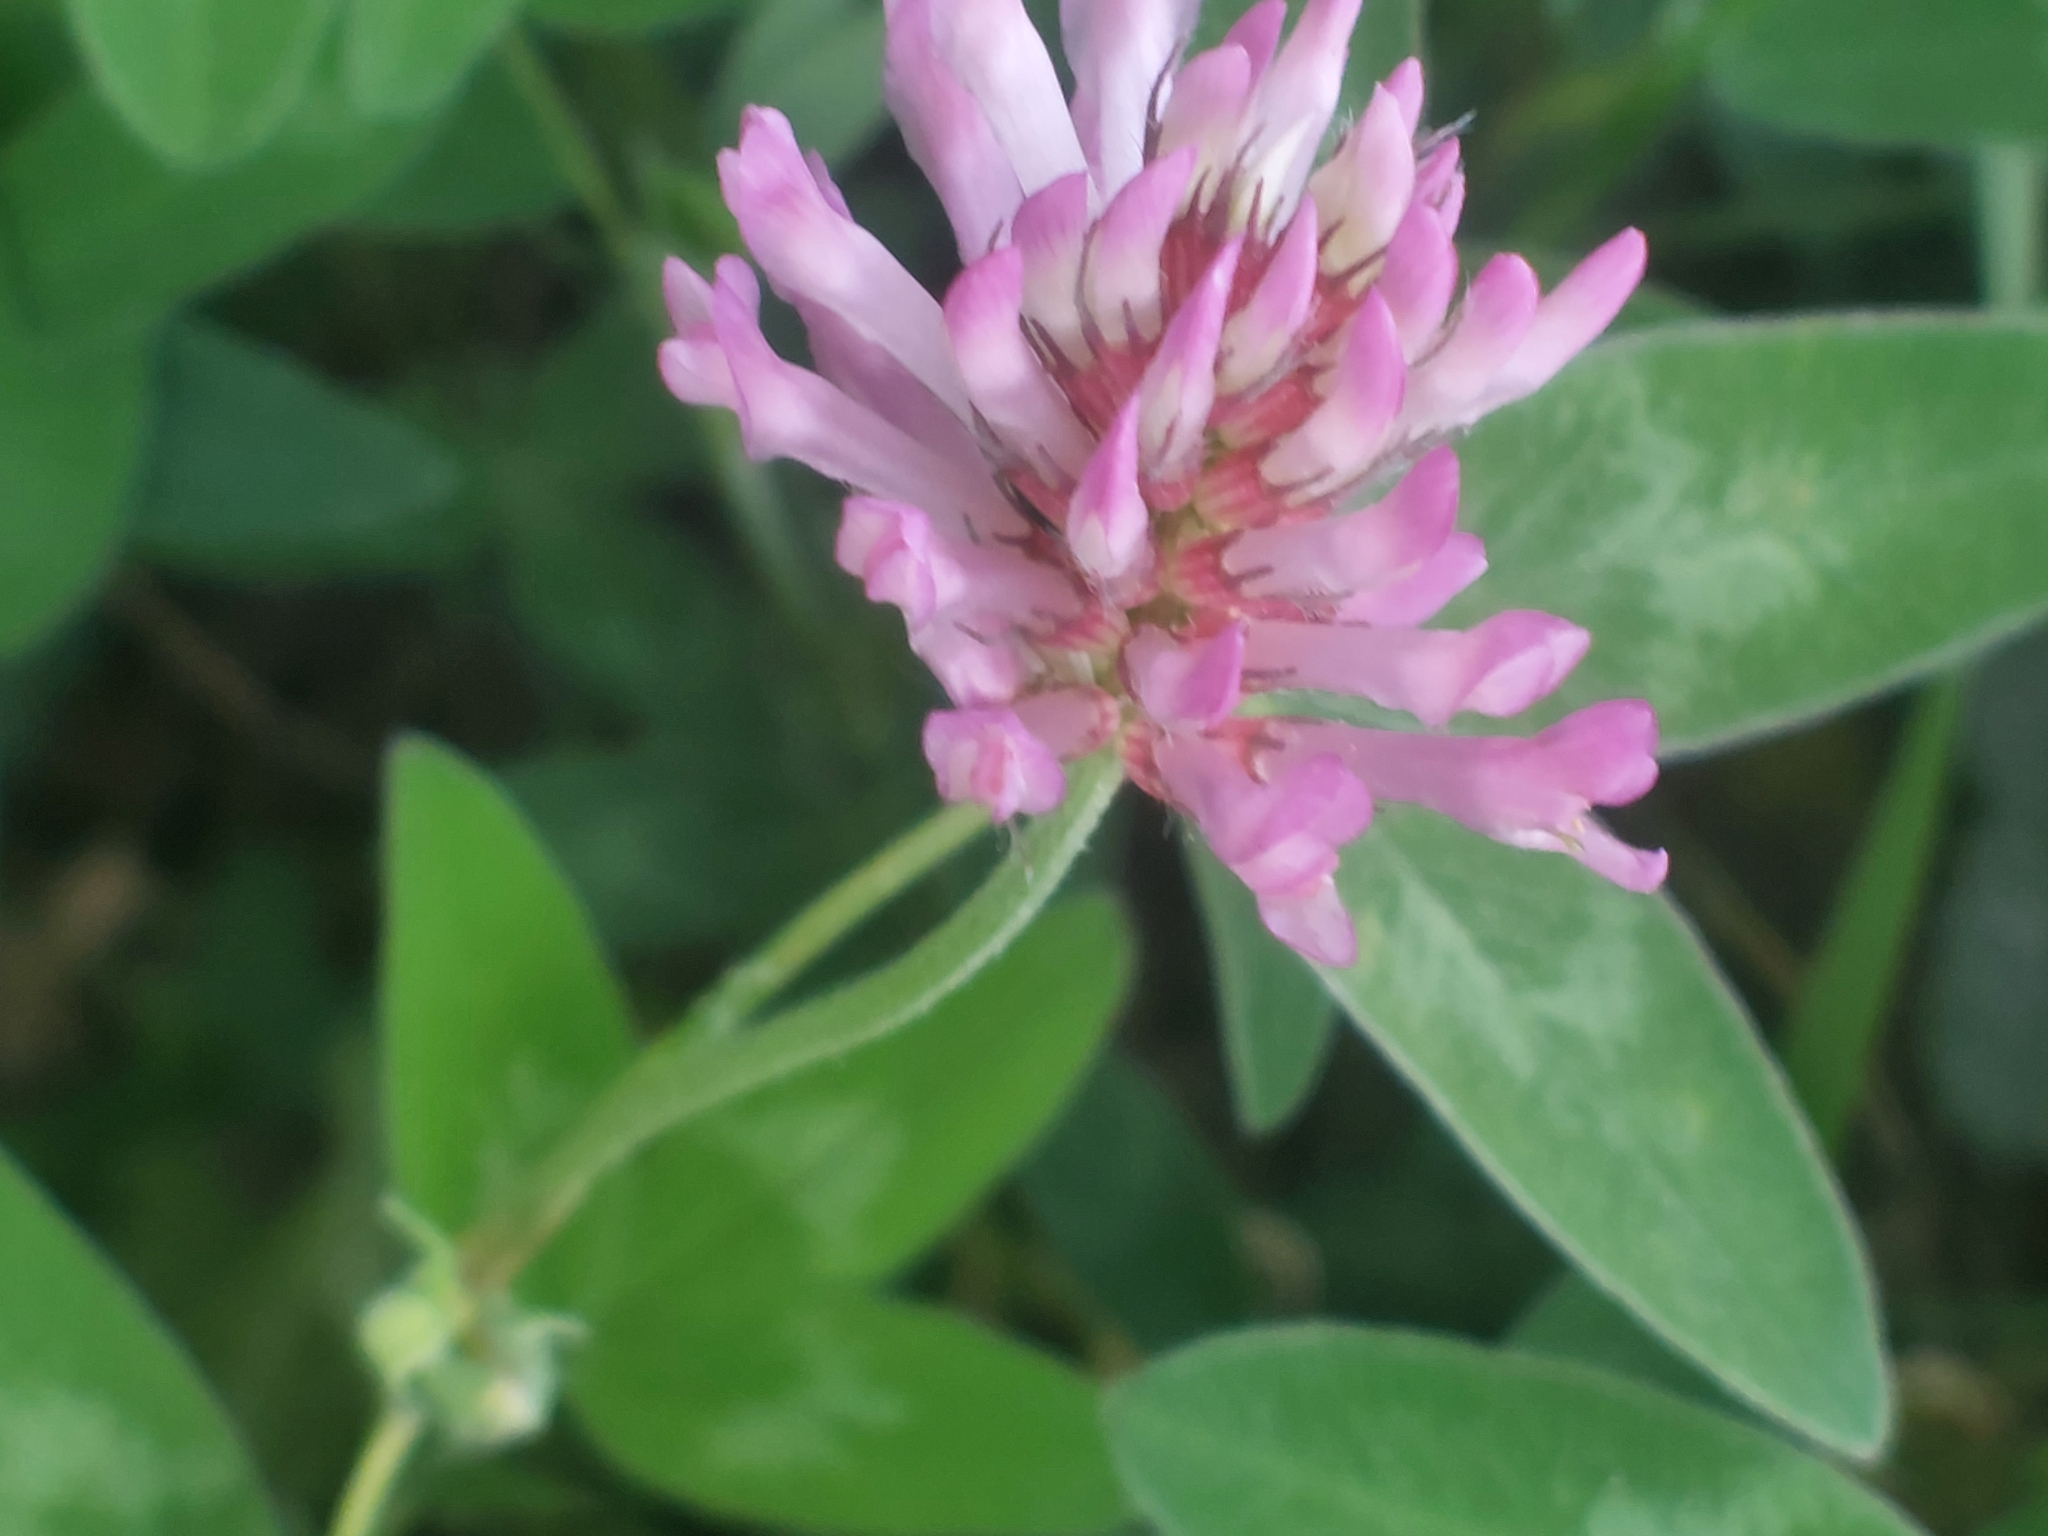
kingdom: Plantae
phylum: Tracheophyta
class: Magnoliopsida
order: Fabales
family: Fabaceae
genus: Trifolium
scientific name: Trifolium medium
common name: Zigzag clover
